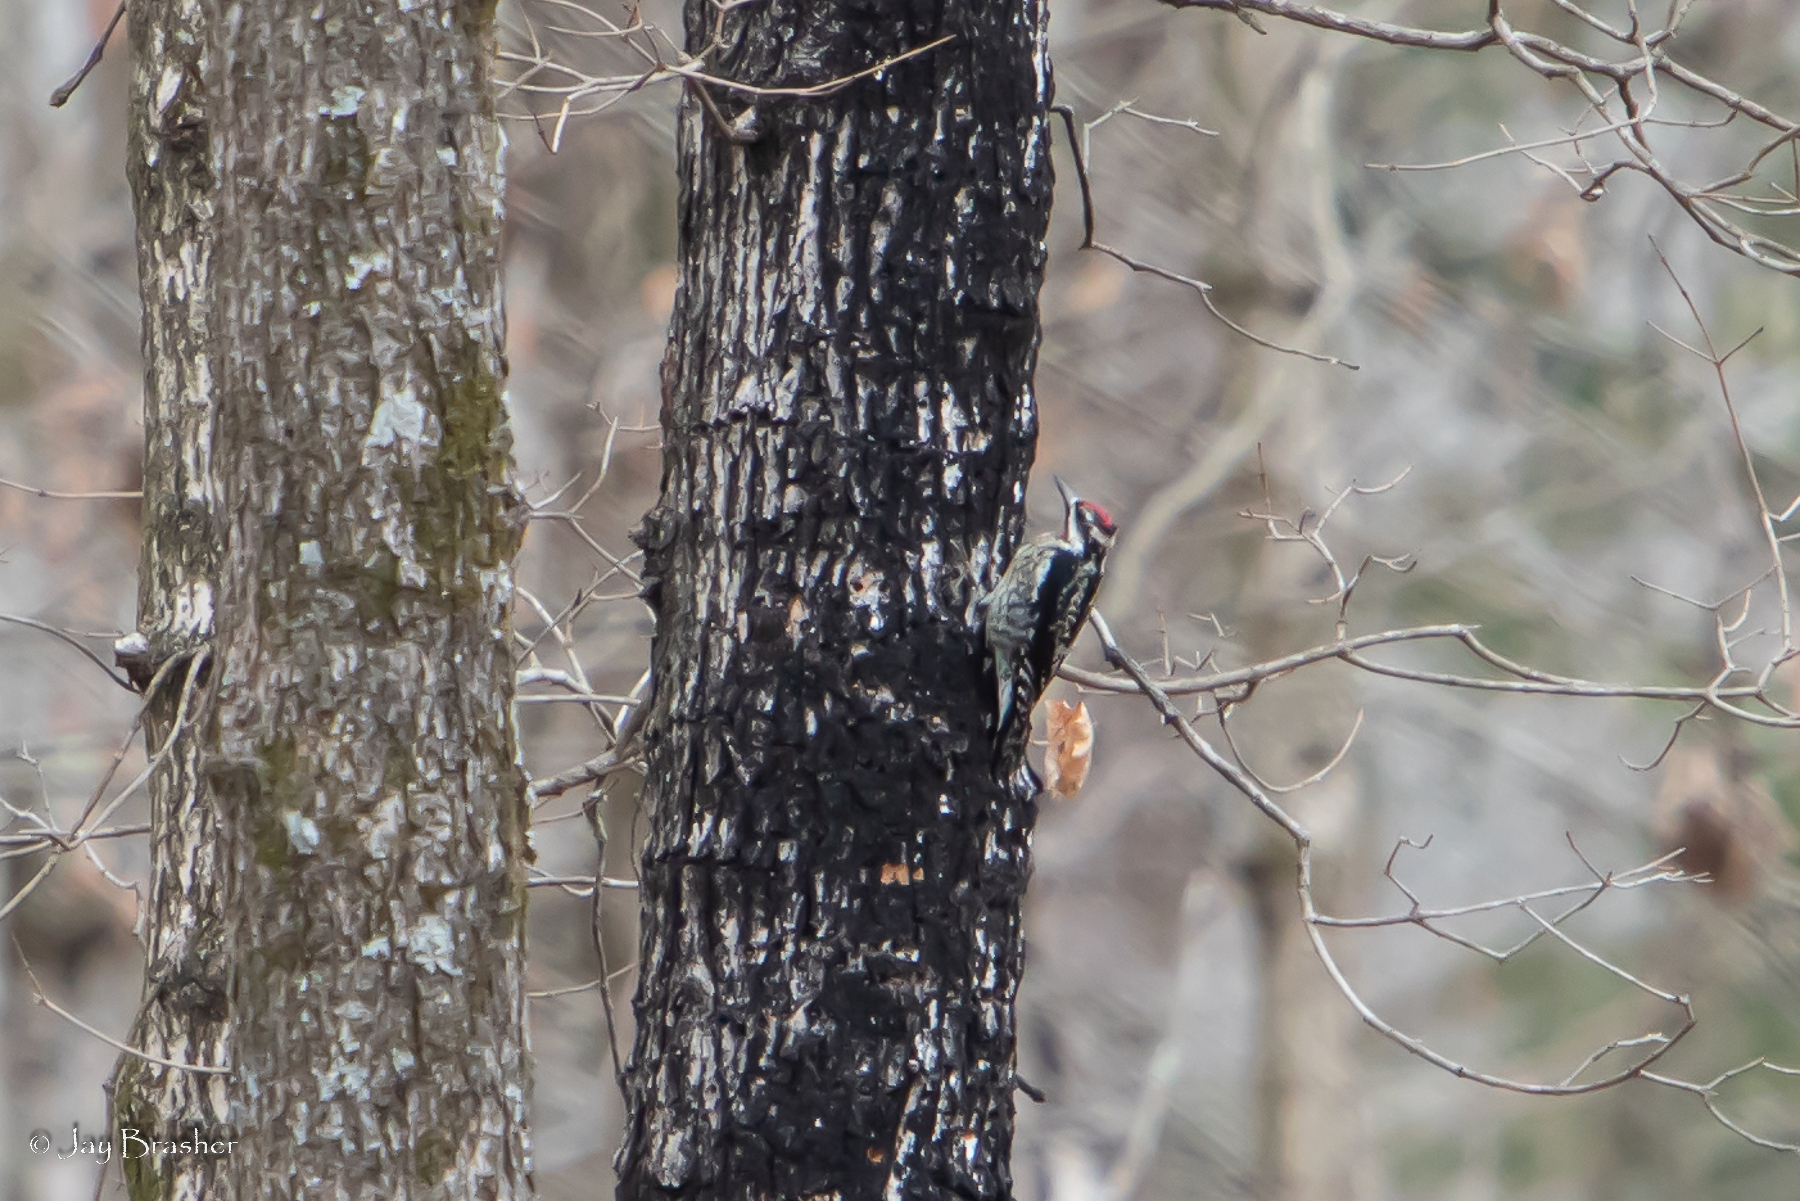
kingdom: Animalia
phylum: Chordata
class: Aves
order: Piciformes
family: Picidae
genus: Sphyrapicus
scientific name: Sphyrapicus varius
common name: Yellow-bellied sapsucker
